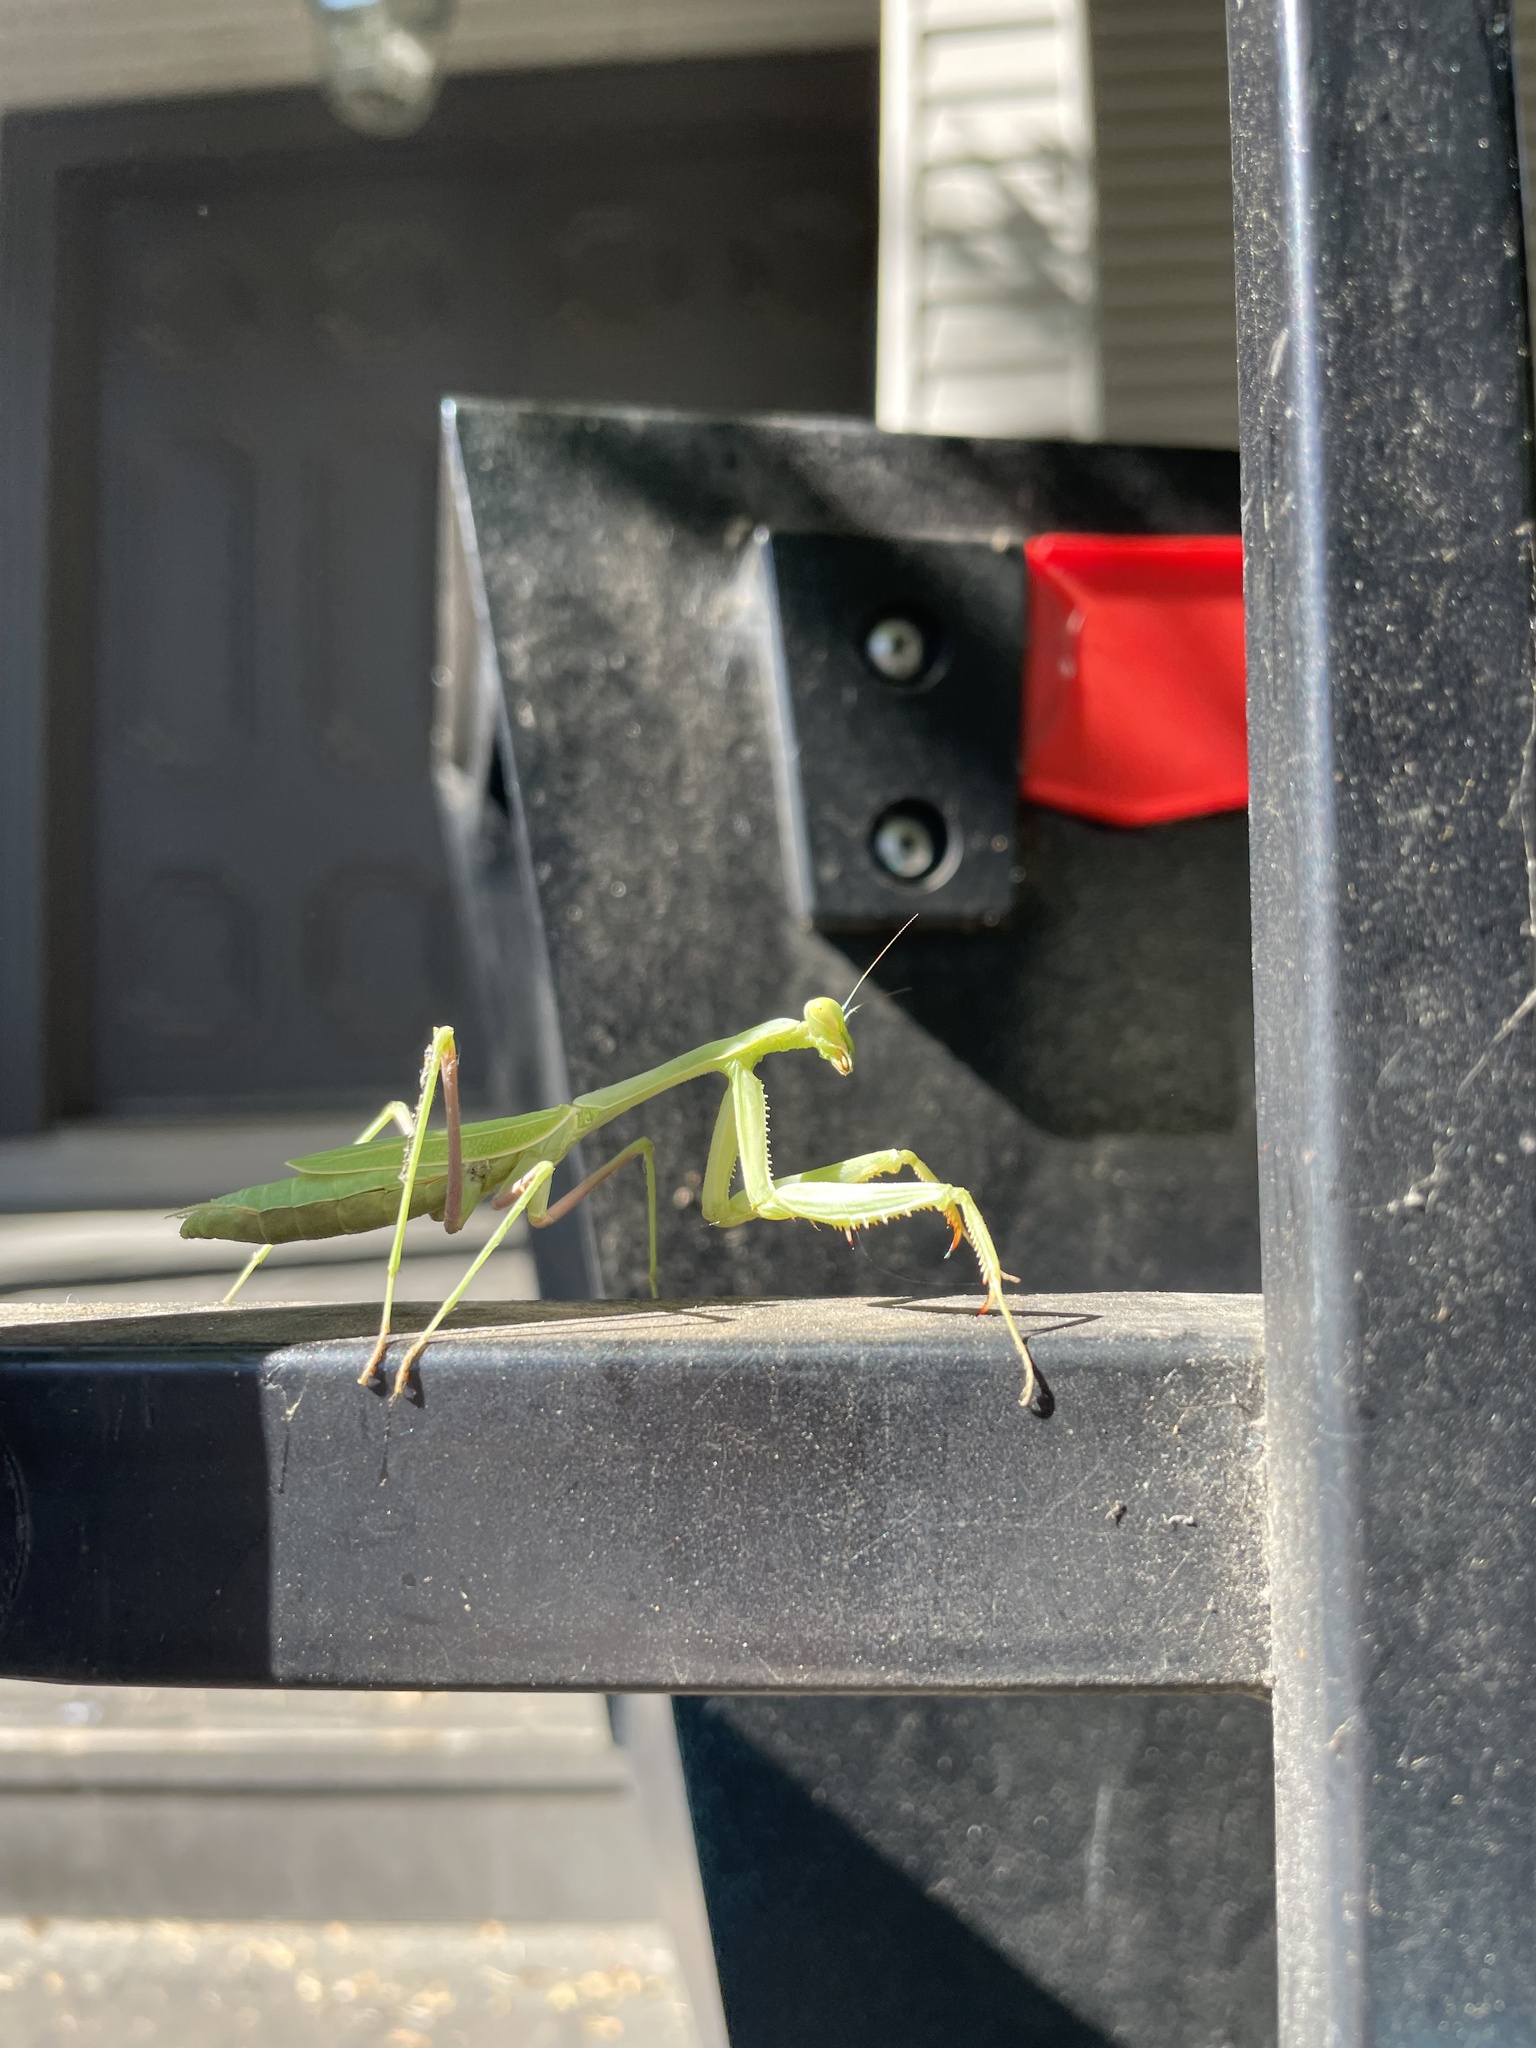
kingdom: Animalia
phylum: Arthropoda
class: Insecta
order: Mantodea
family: Mantidae
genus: Stagmomantis
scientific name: Stagmomantis limbata
